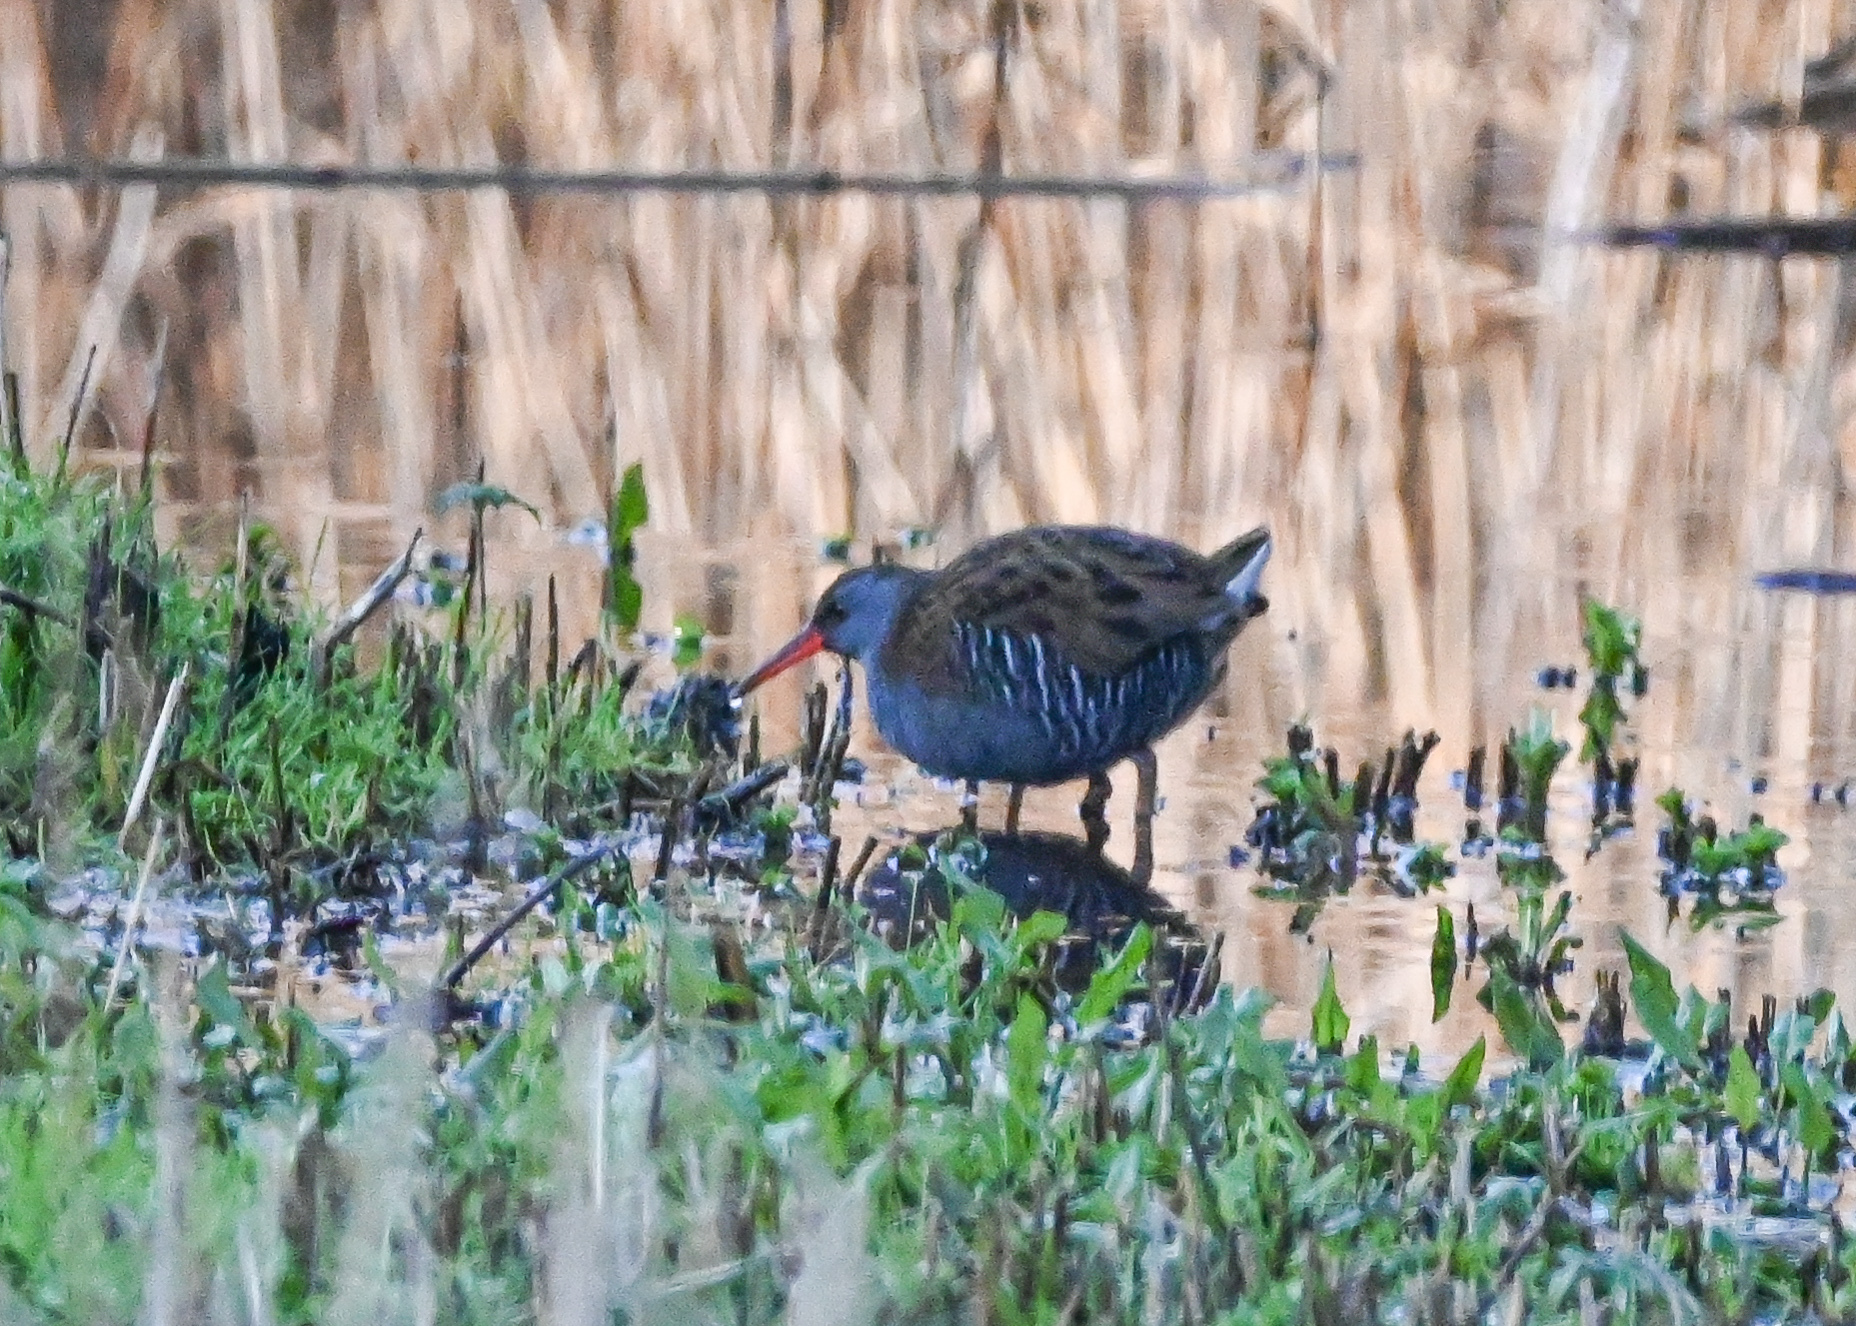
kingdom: Animalia
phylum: Chordata
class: Aves
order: Gruiformes
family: Rallidae
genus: Rallus
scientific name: Rallus aquaticus
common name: Water rail
